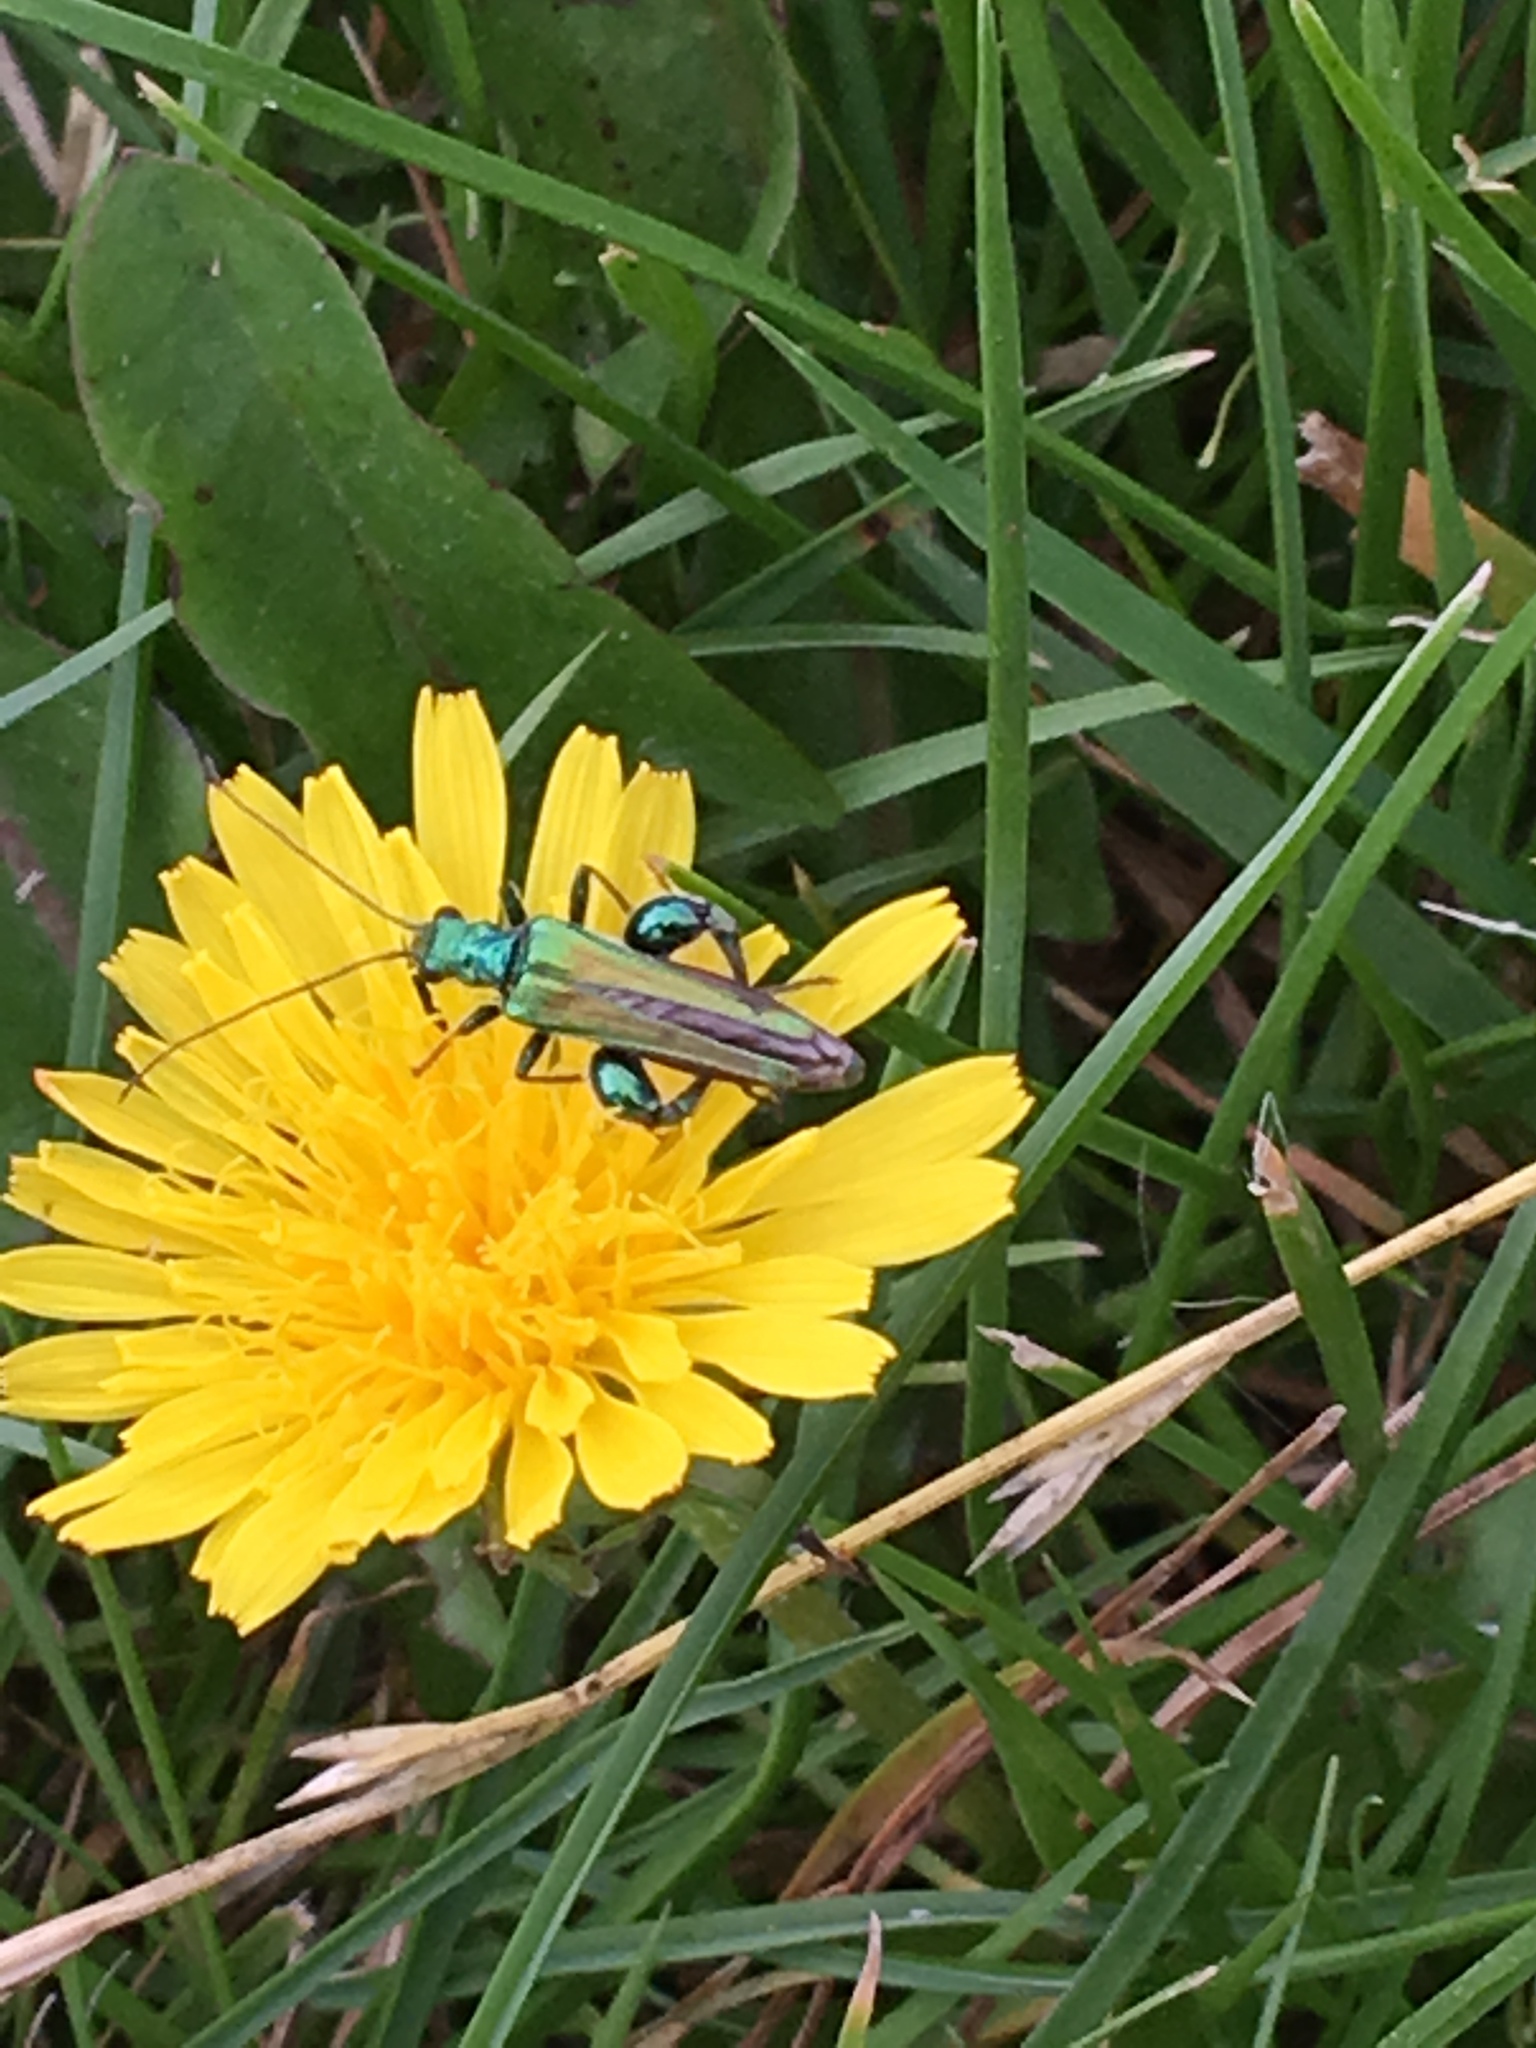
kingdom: Animalia
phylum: Arthropoda
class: Insecta
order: Coleoptera
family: Oedemeridae
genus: Oedemera
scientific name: Oedemera nobilis
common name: Swollen-thighed beetle
